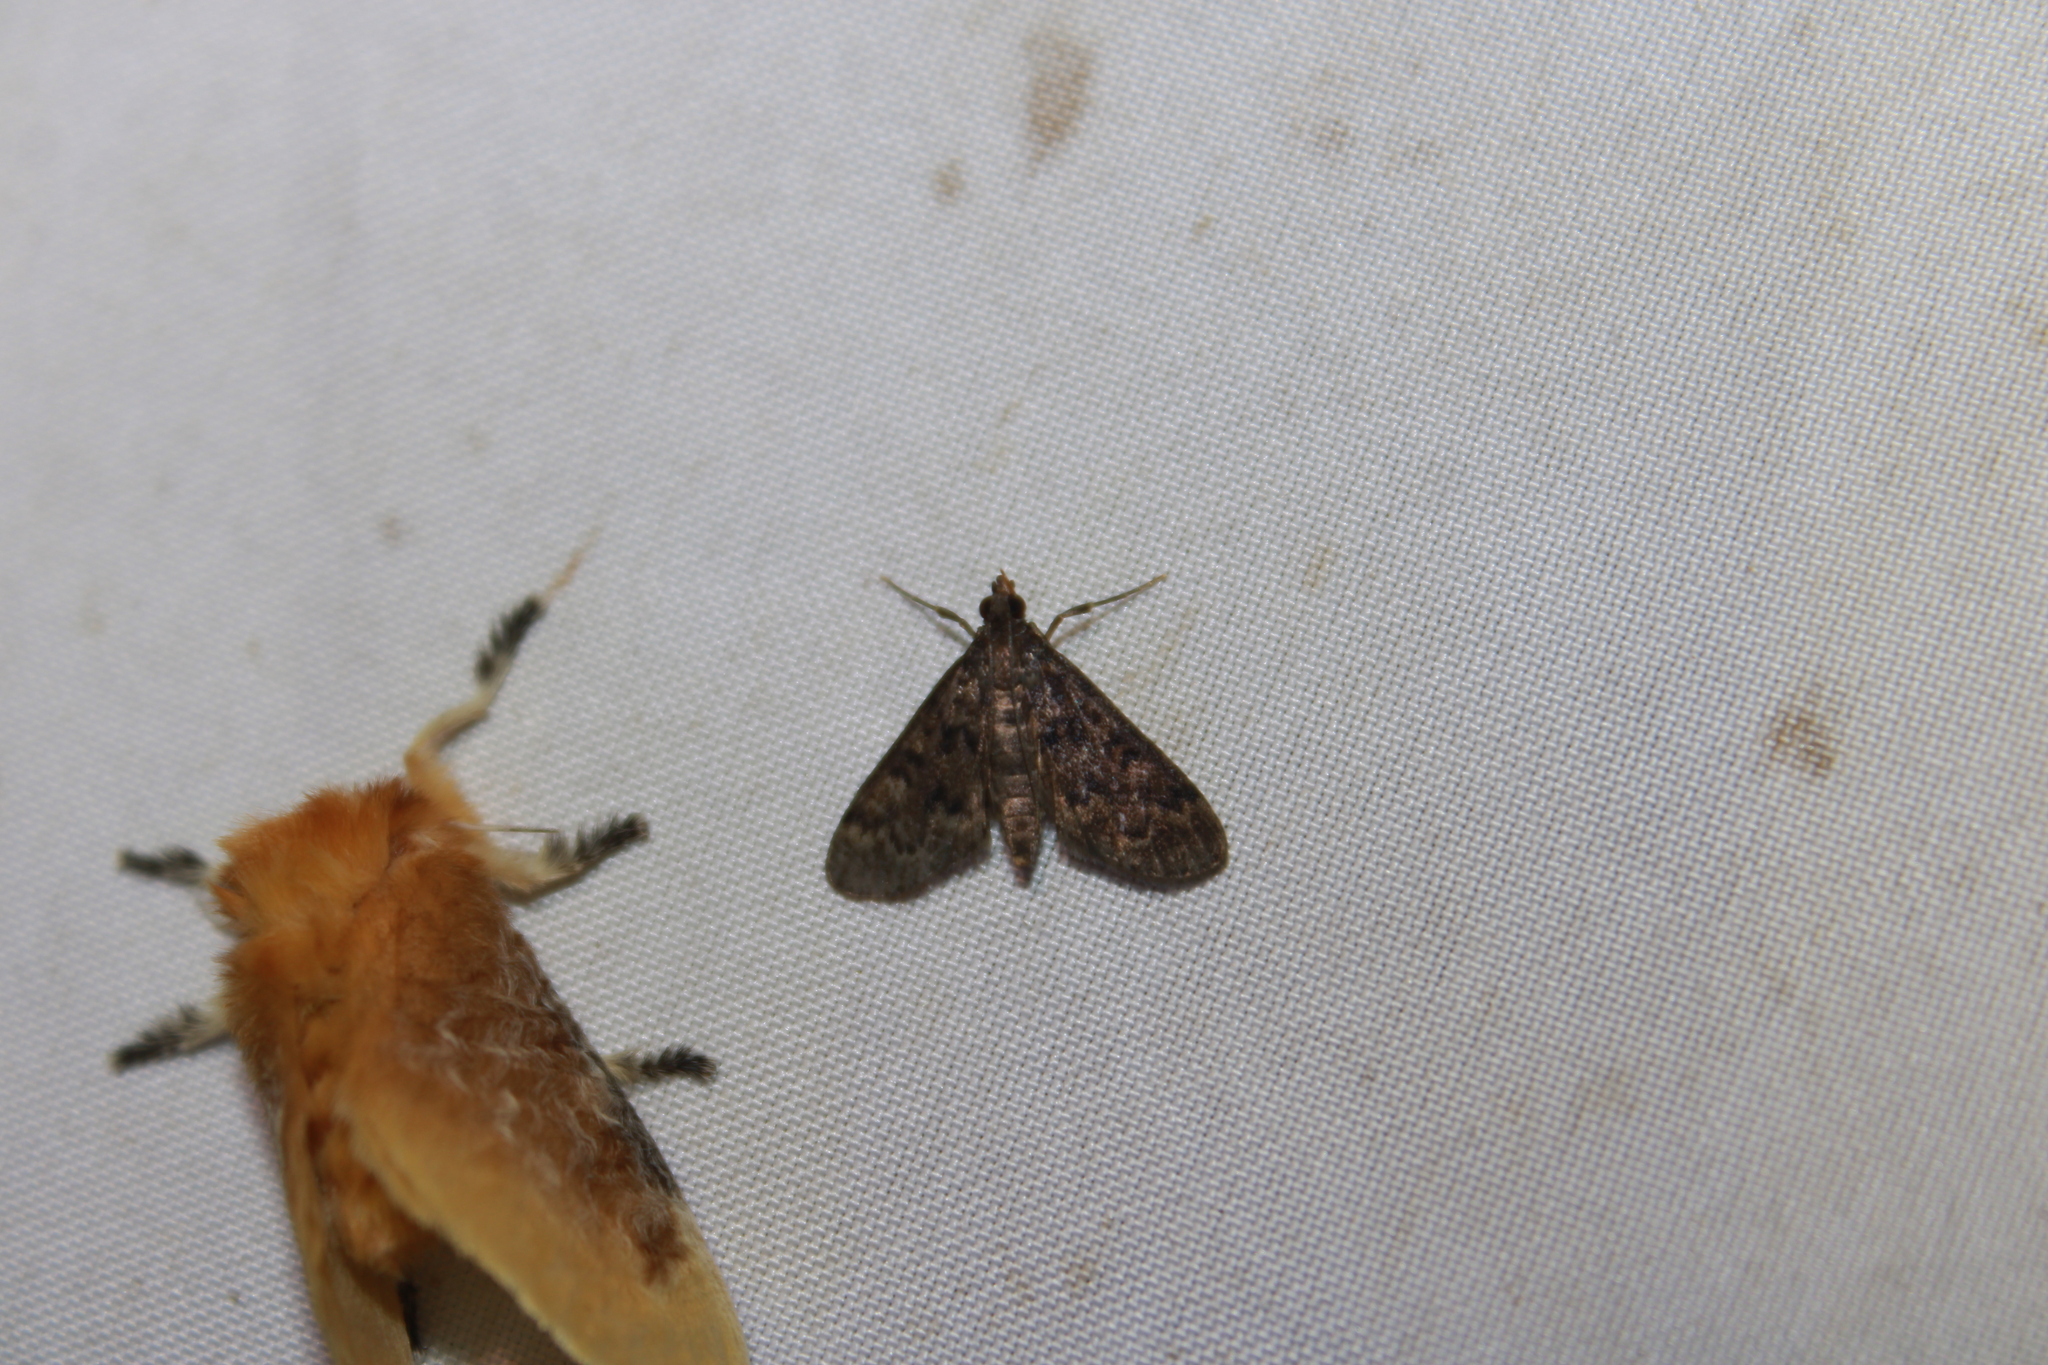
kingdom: Animalia
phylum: Arthropoda
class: Insecta
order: Lepidoptera
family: Crambidae
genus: Piletocera
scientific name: Piletocera bufalis
